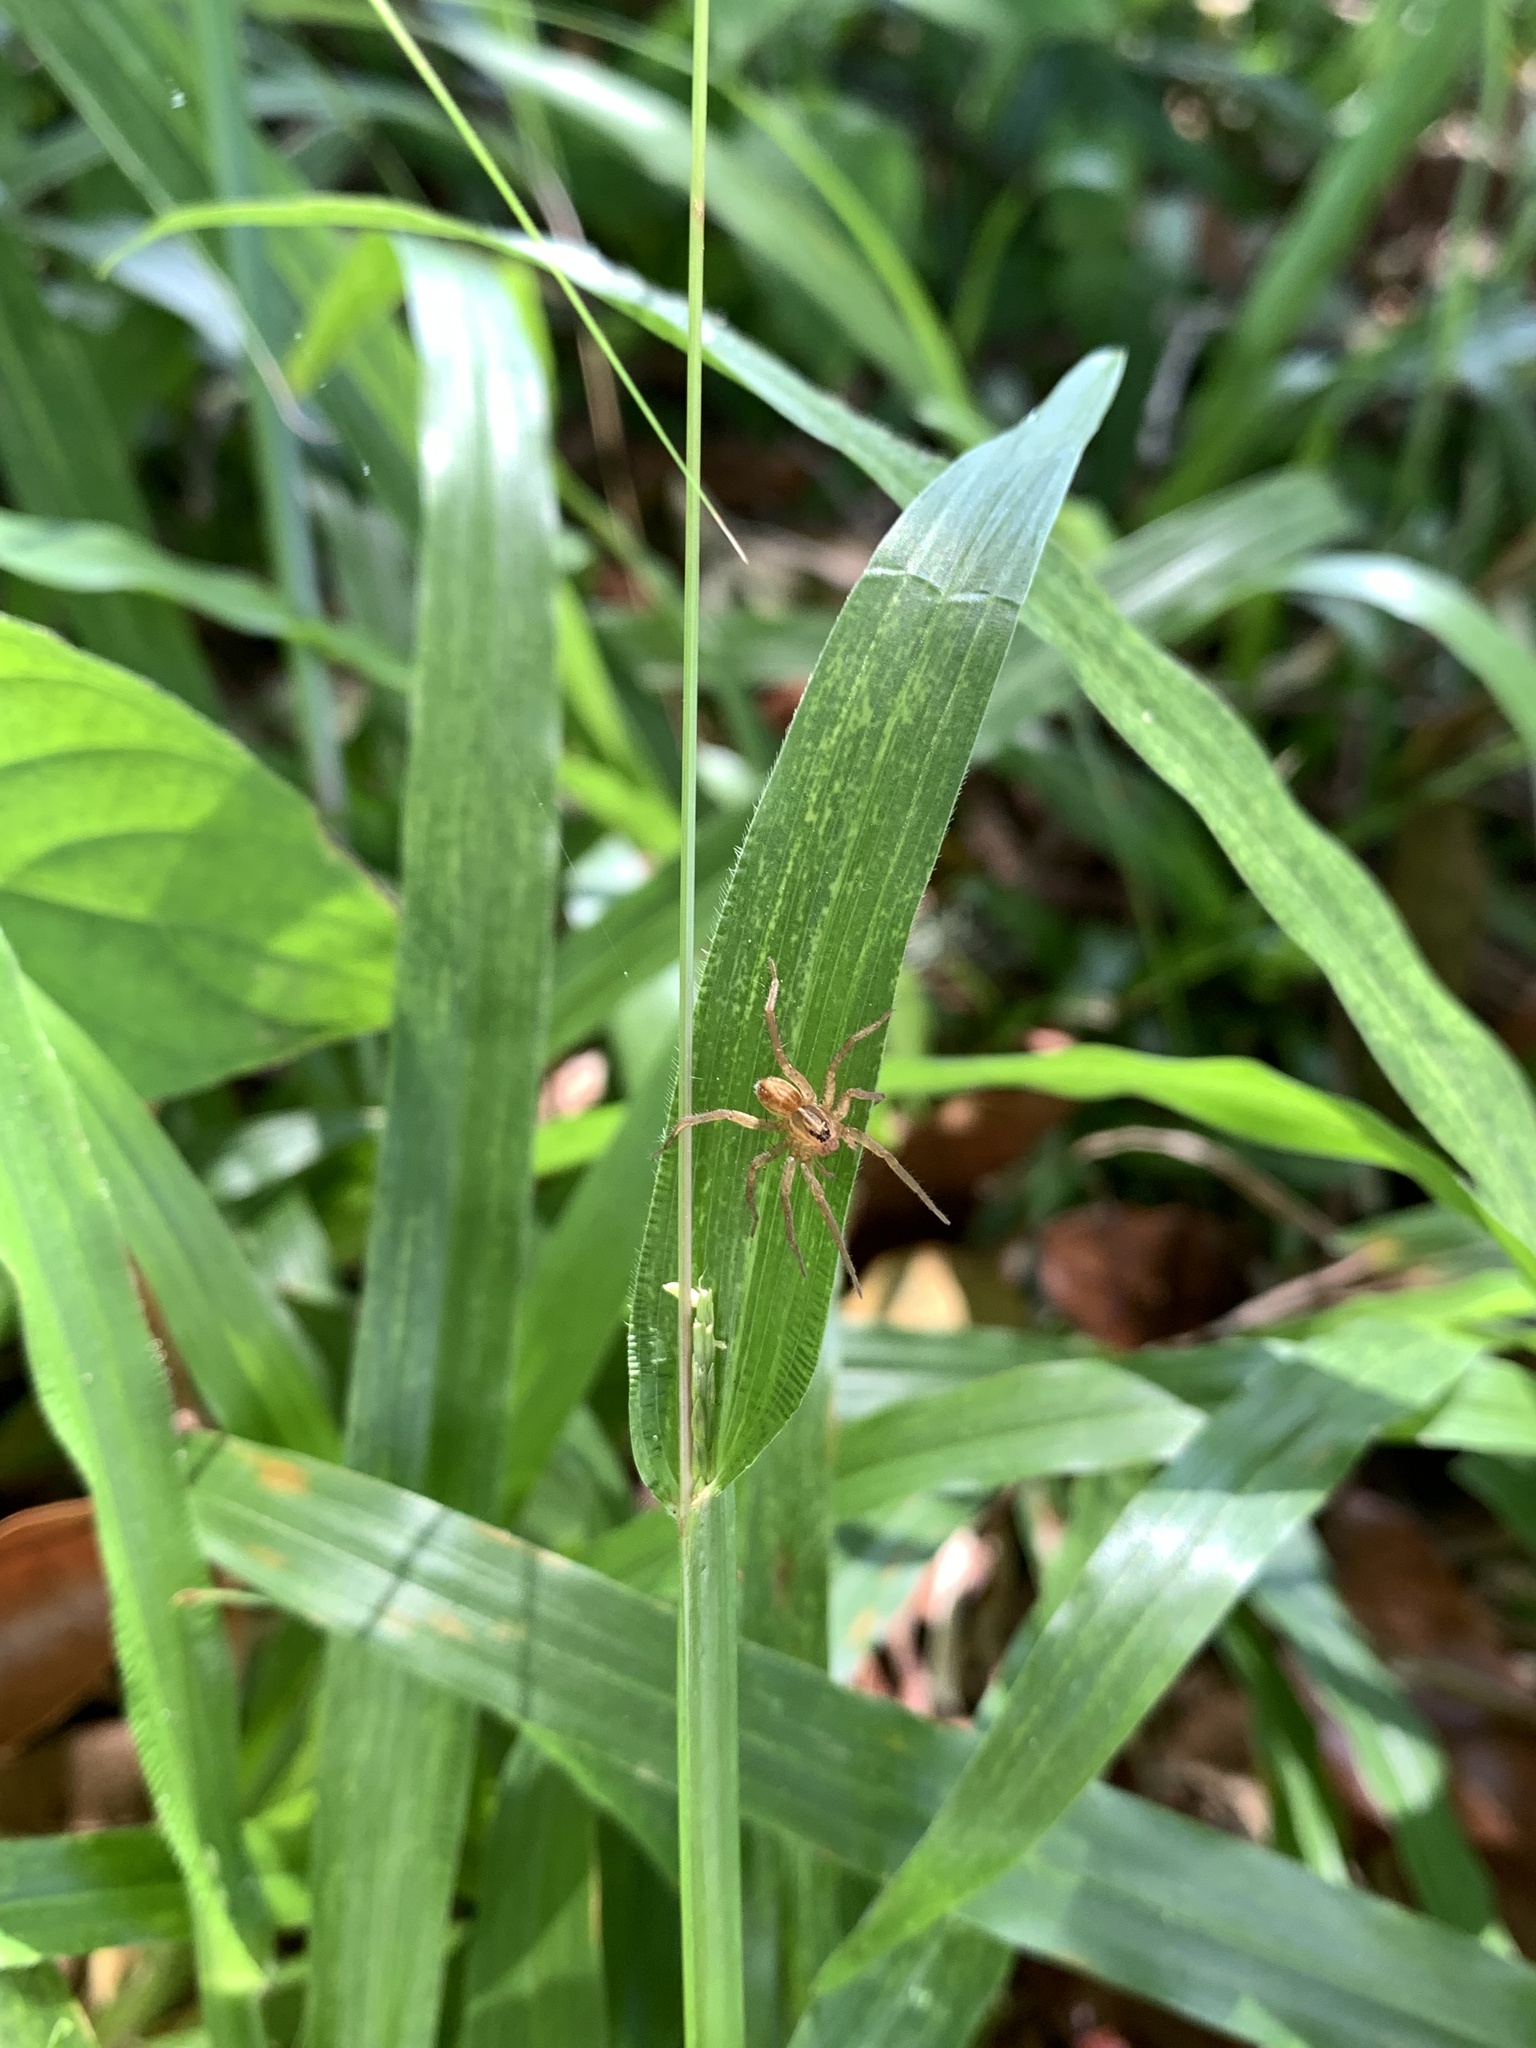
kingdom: Animalia
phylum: Arthropoda
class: Arachnida
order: Araneae
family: Lycosidae
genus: Trochosa
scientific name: Trochosa
